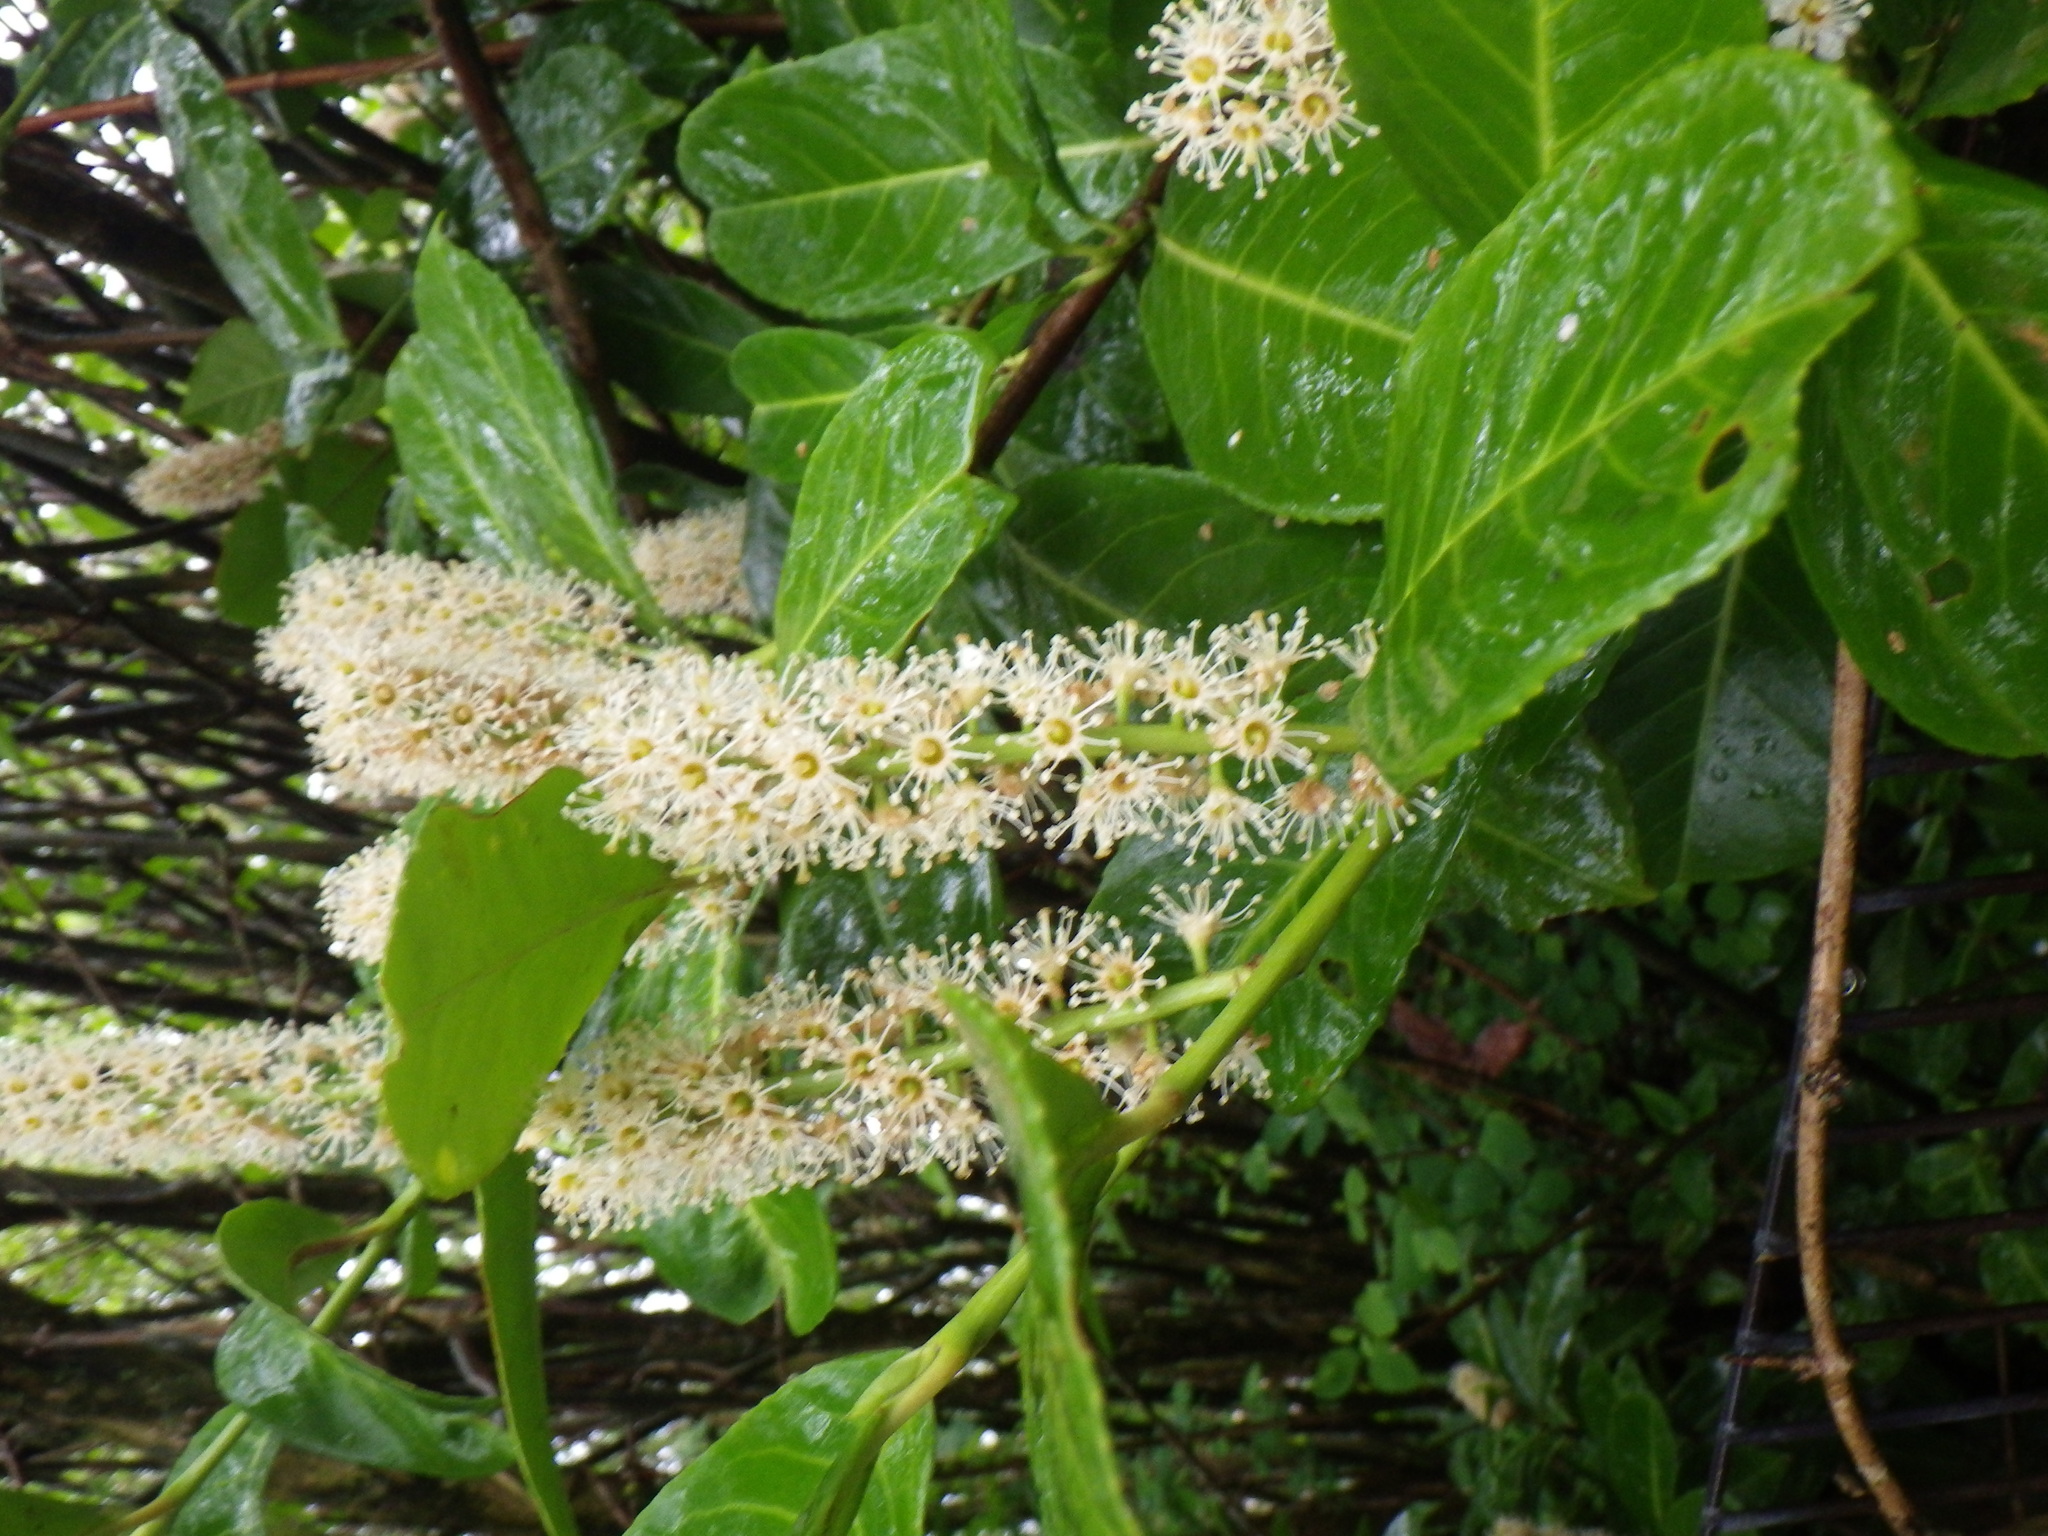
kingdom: Plantae
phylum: Tracheophyta
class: Magnoliopsida
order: Rosales
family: Rosaceae
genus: Prunus
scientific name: Prunus laurocerasus
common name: Cherry laurel
